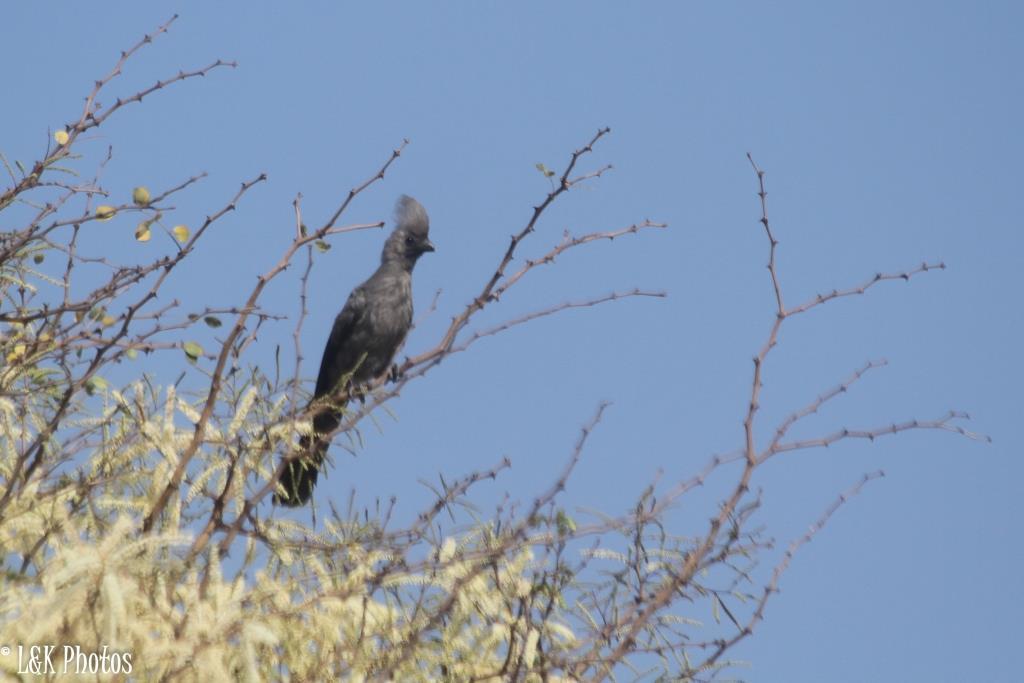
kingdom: Animalia
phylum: Chordata
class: Aves
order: Musophagiformes
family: Musophagidae
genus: Corythaixoides
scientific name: Corythaixoides concolor
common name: Grey go-away-bird
